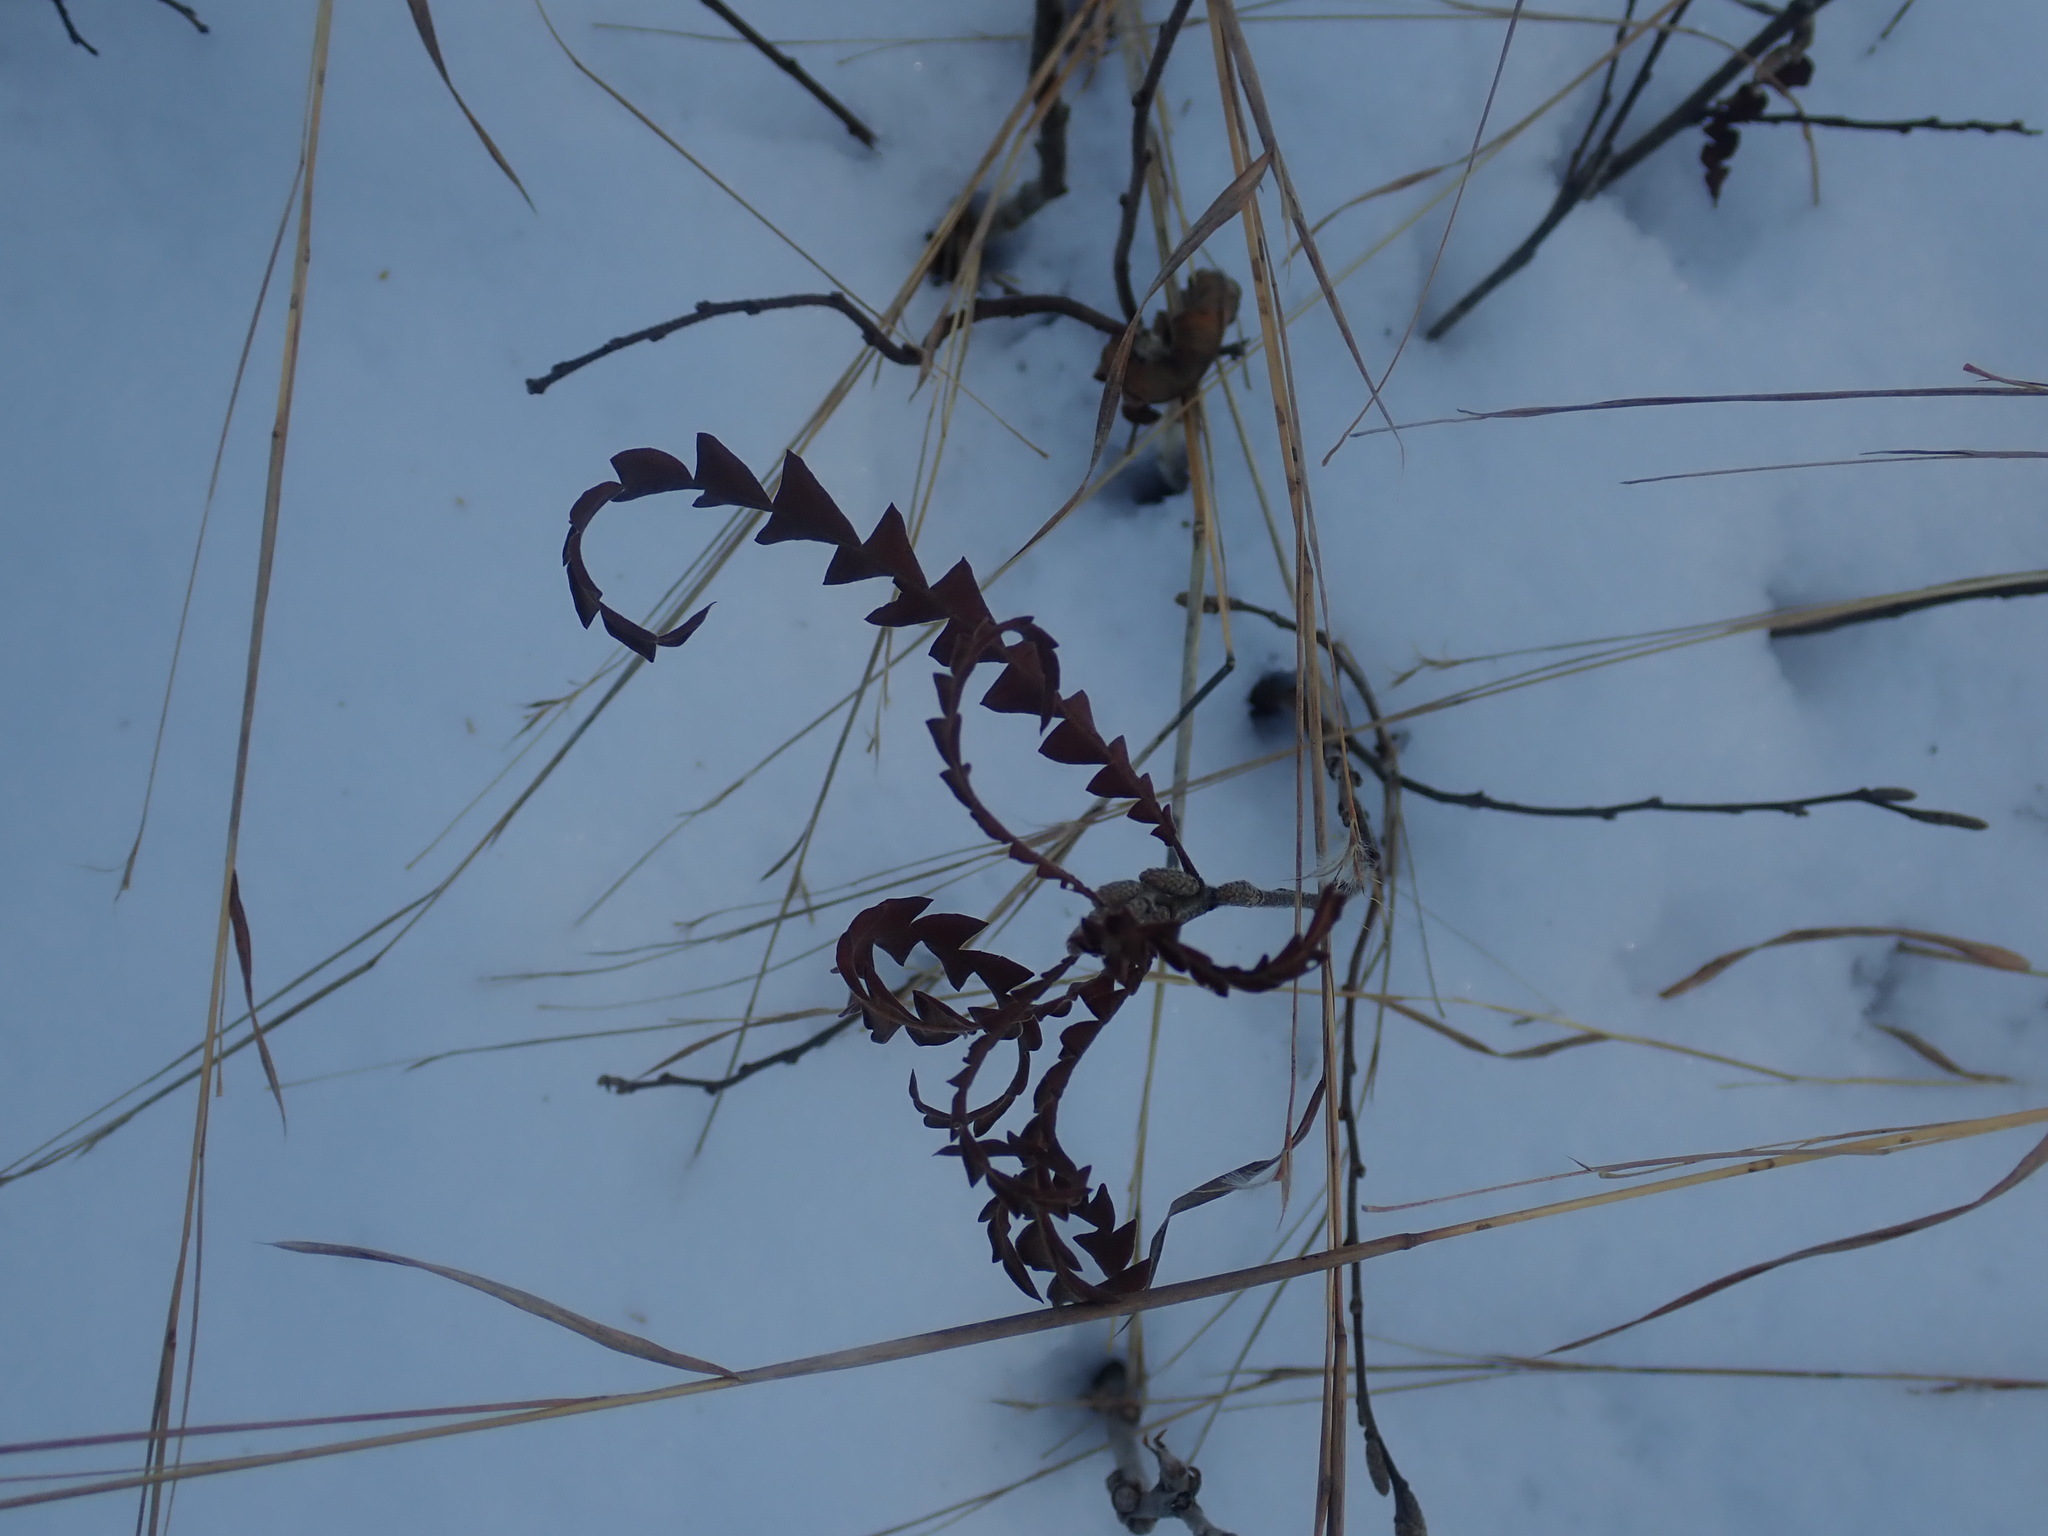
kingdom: Plantae
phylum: Tracheophyta
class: Magnoliopsida
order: Fagales
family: Myricaceae
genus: Comptonia
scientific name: Comptonia peregrina
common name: Sweet-fern
